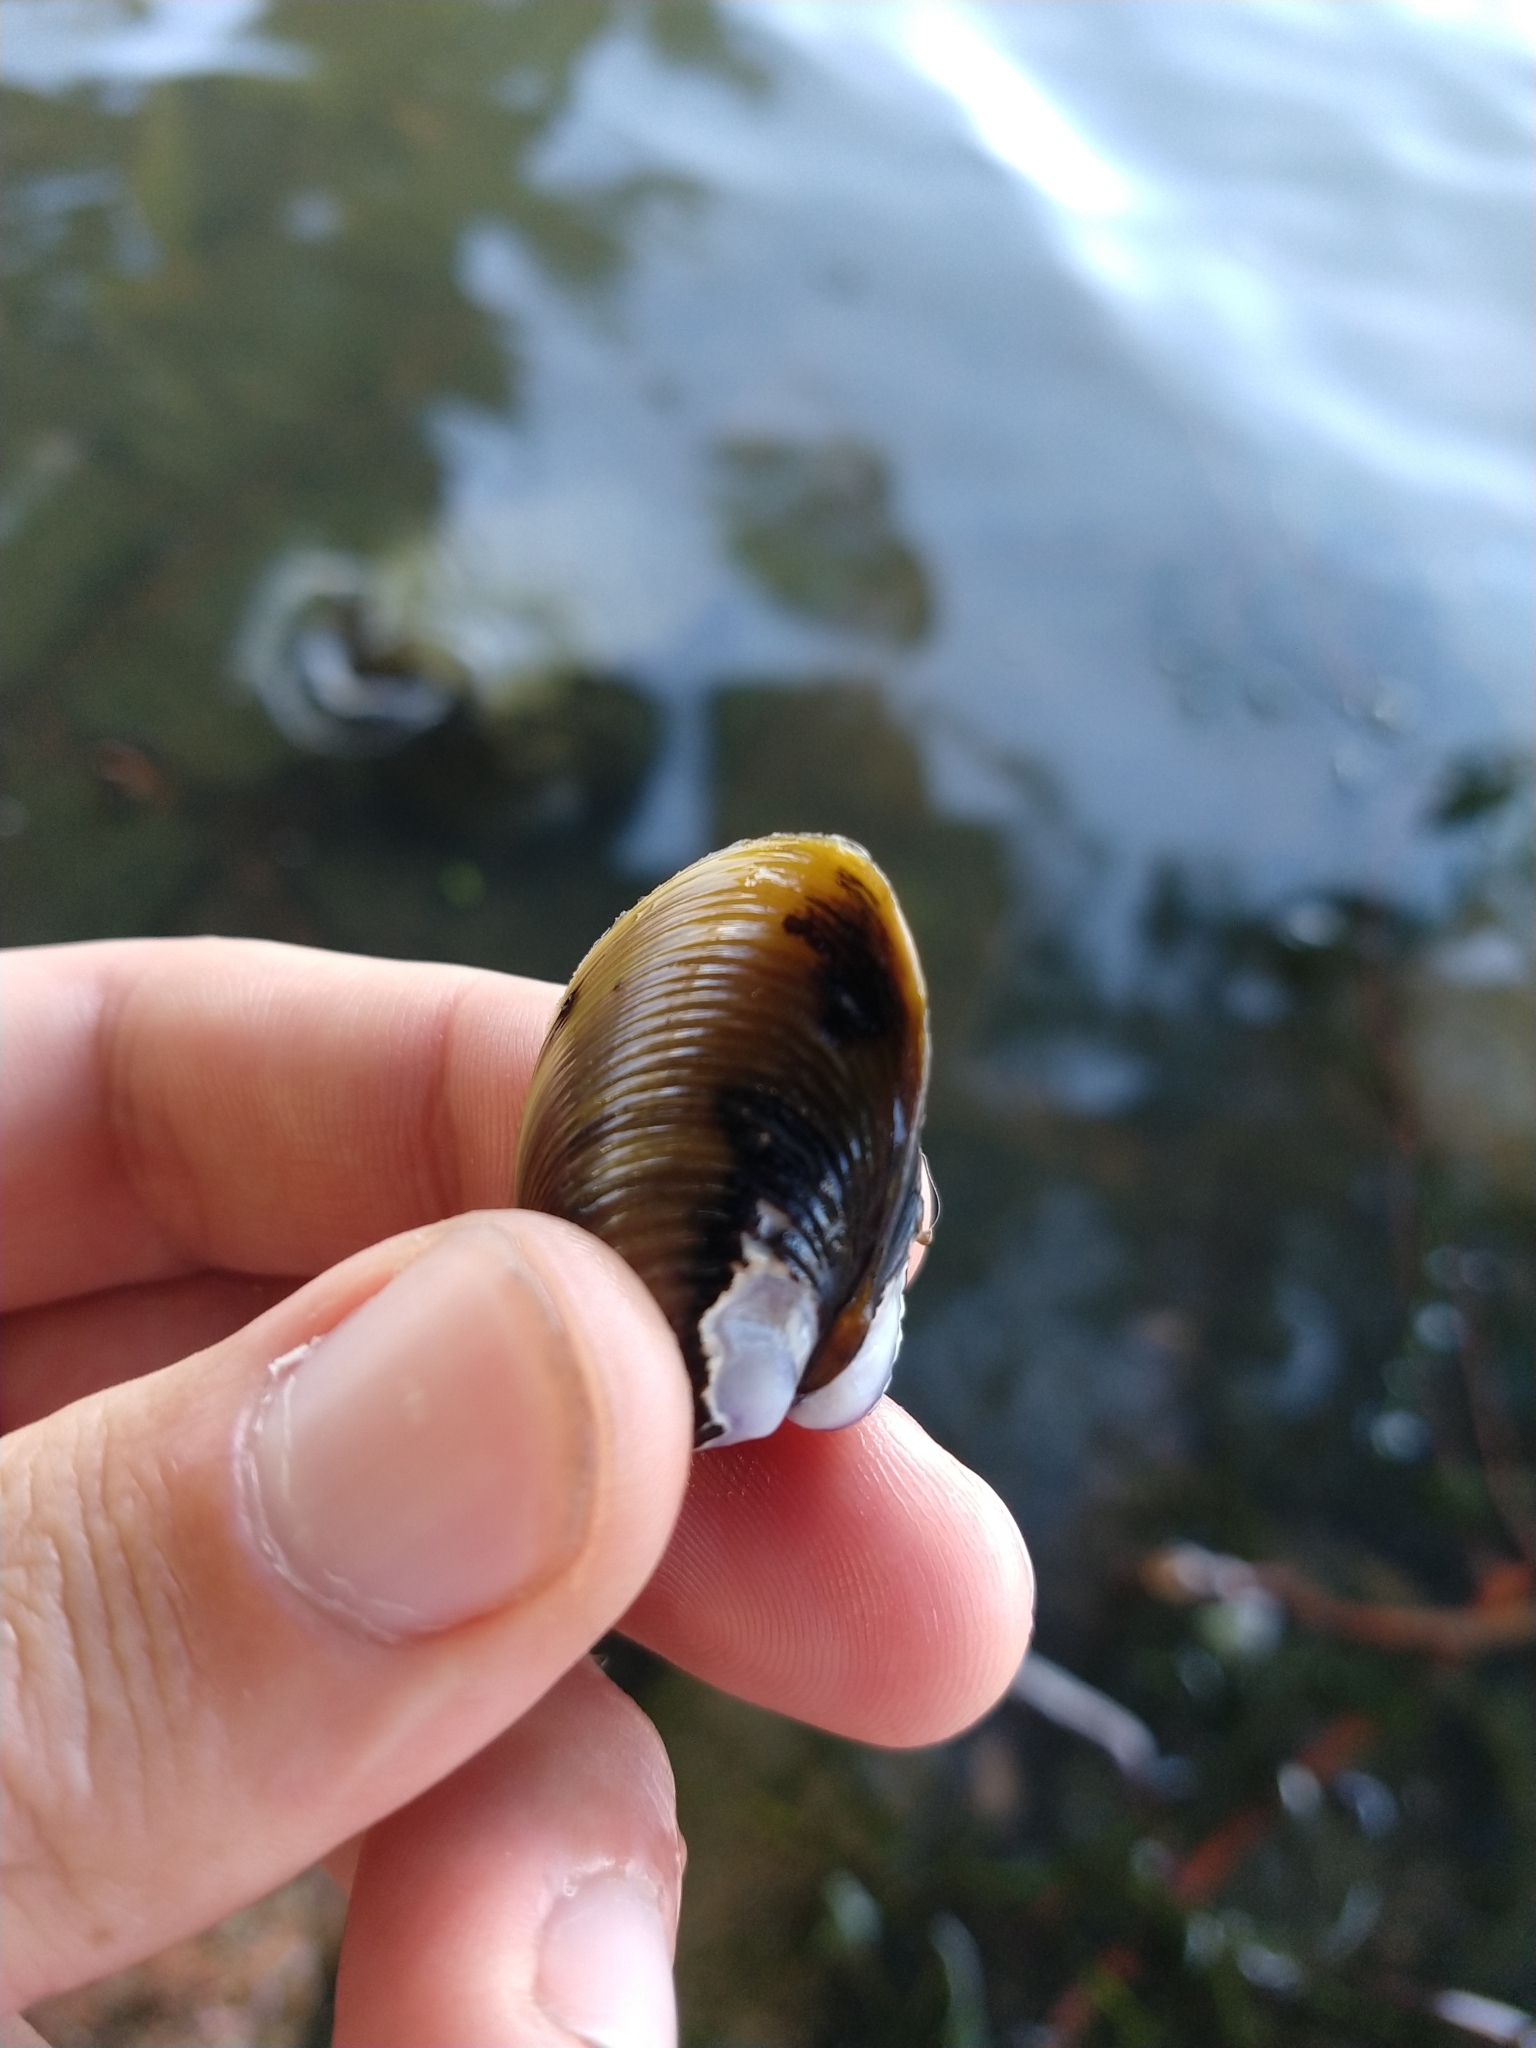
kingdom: Animalia
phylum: Mollusca
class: Bivalvia
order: Venerida
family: Cyrenidae
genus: Corbicula
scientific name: Corbicula fluminea
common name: Asian clam
